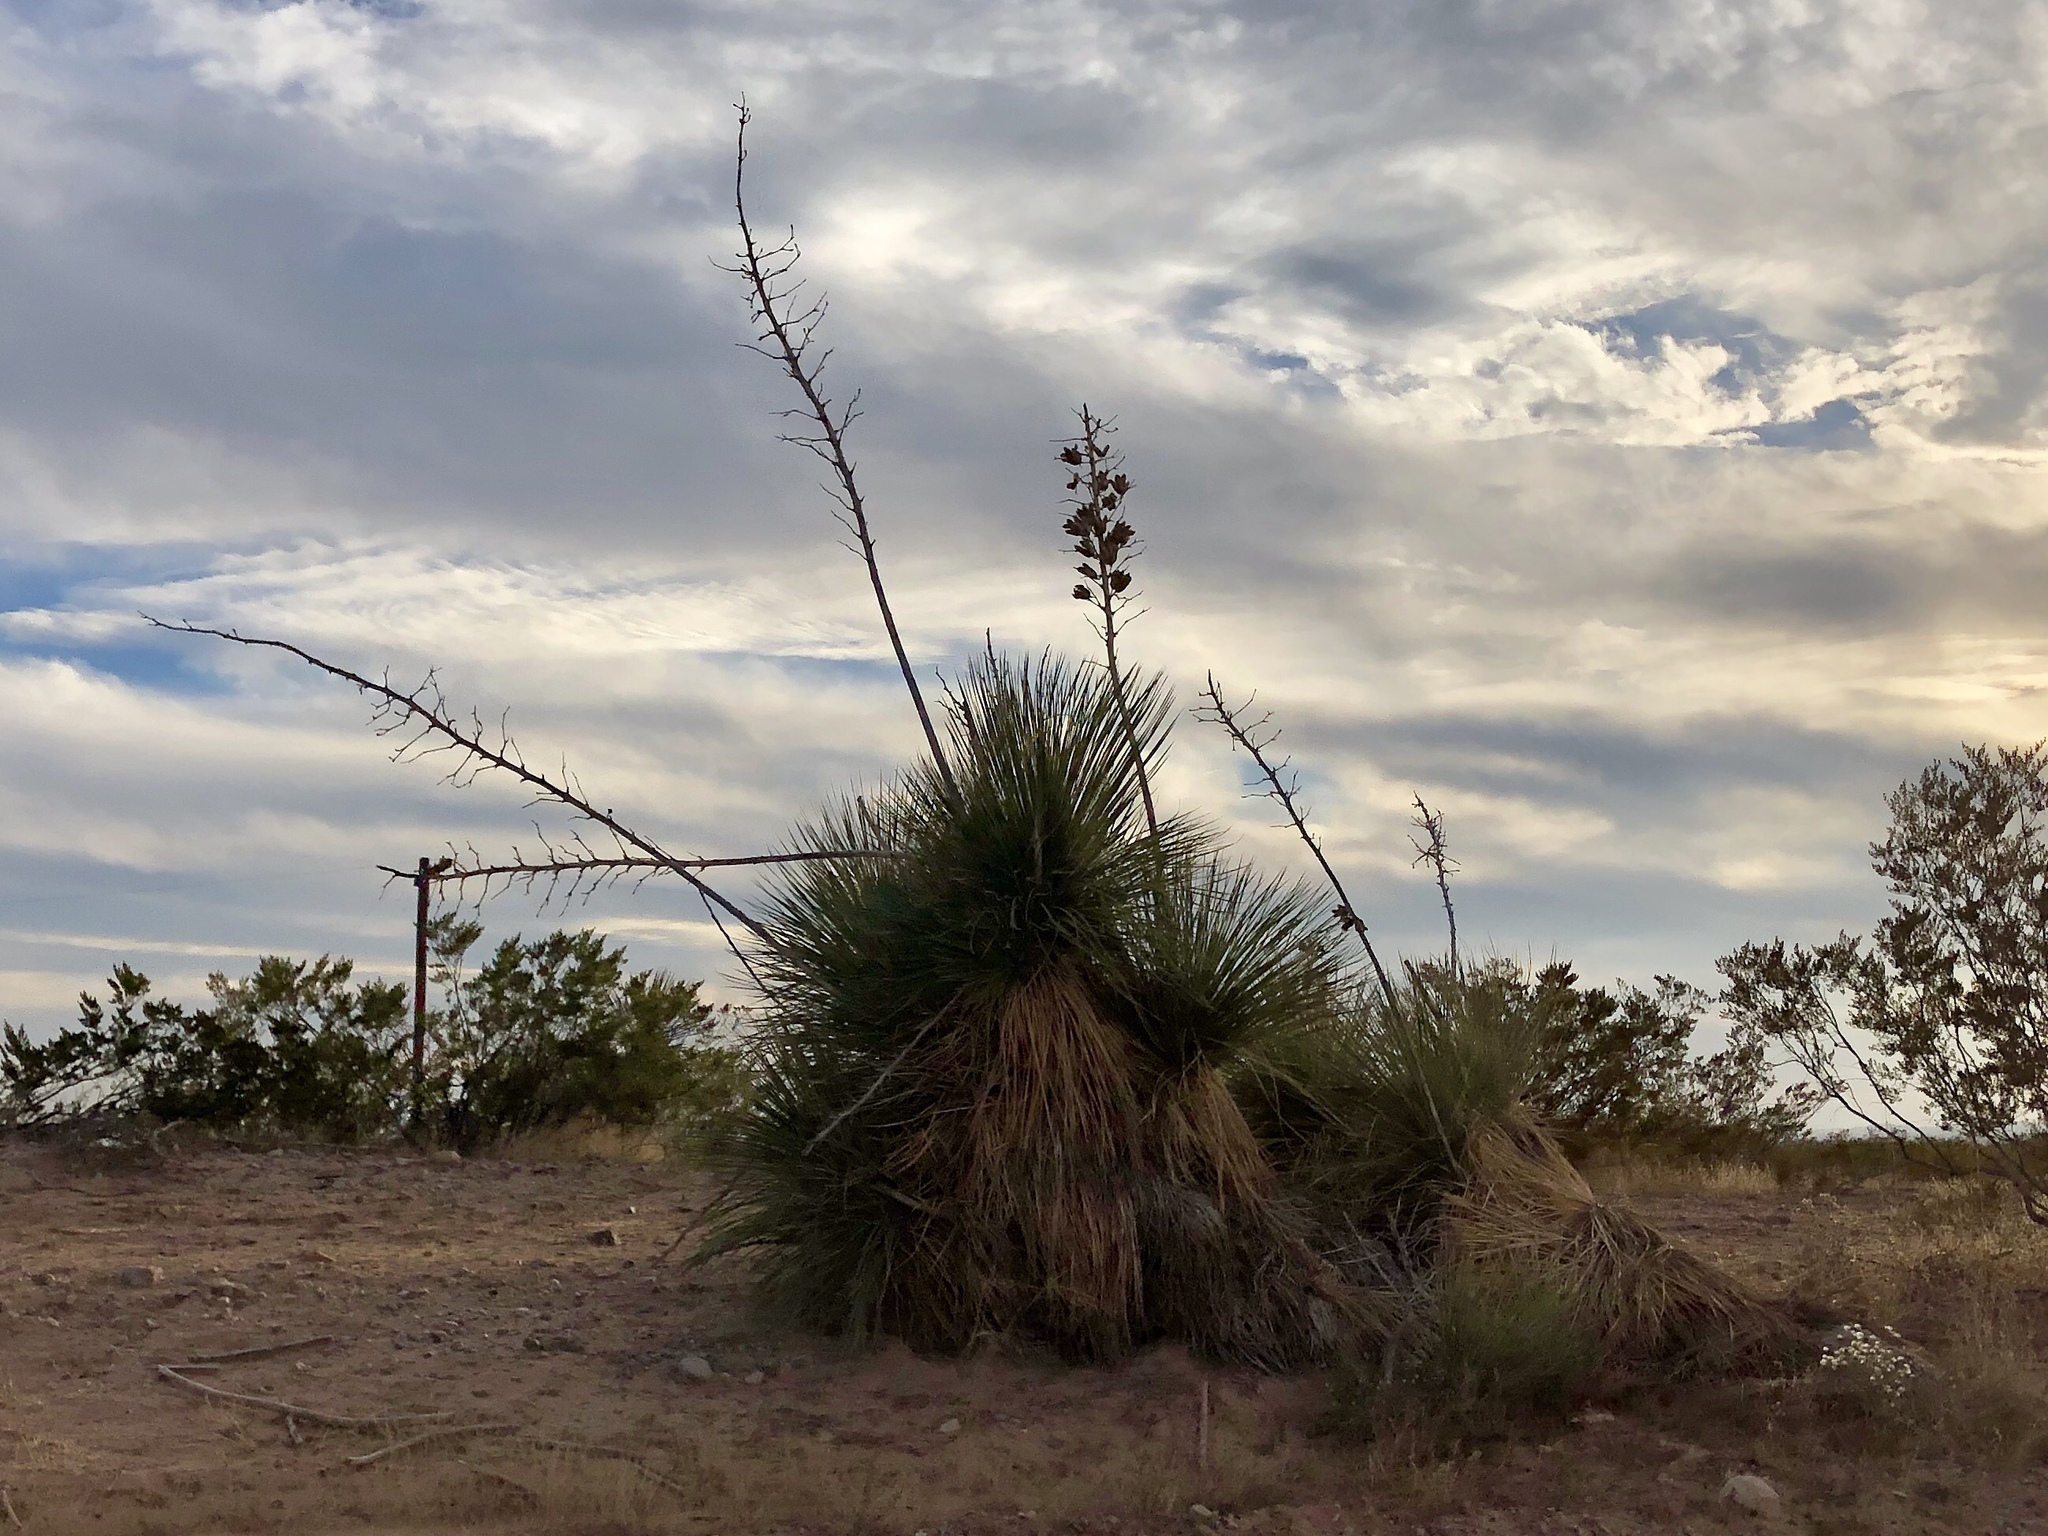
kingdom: Plantae
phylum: Tracheophyta
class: Liliopsida
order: Asparagales
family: Asparagaceae
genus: Yucca
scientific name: Yucca elata
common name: Palmella
